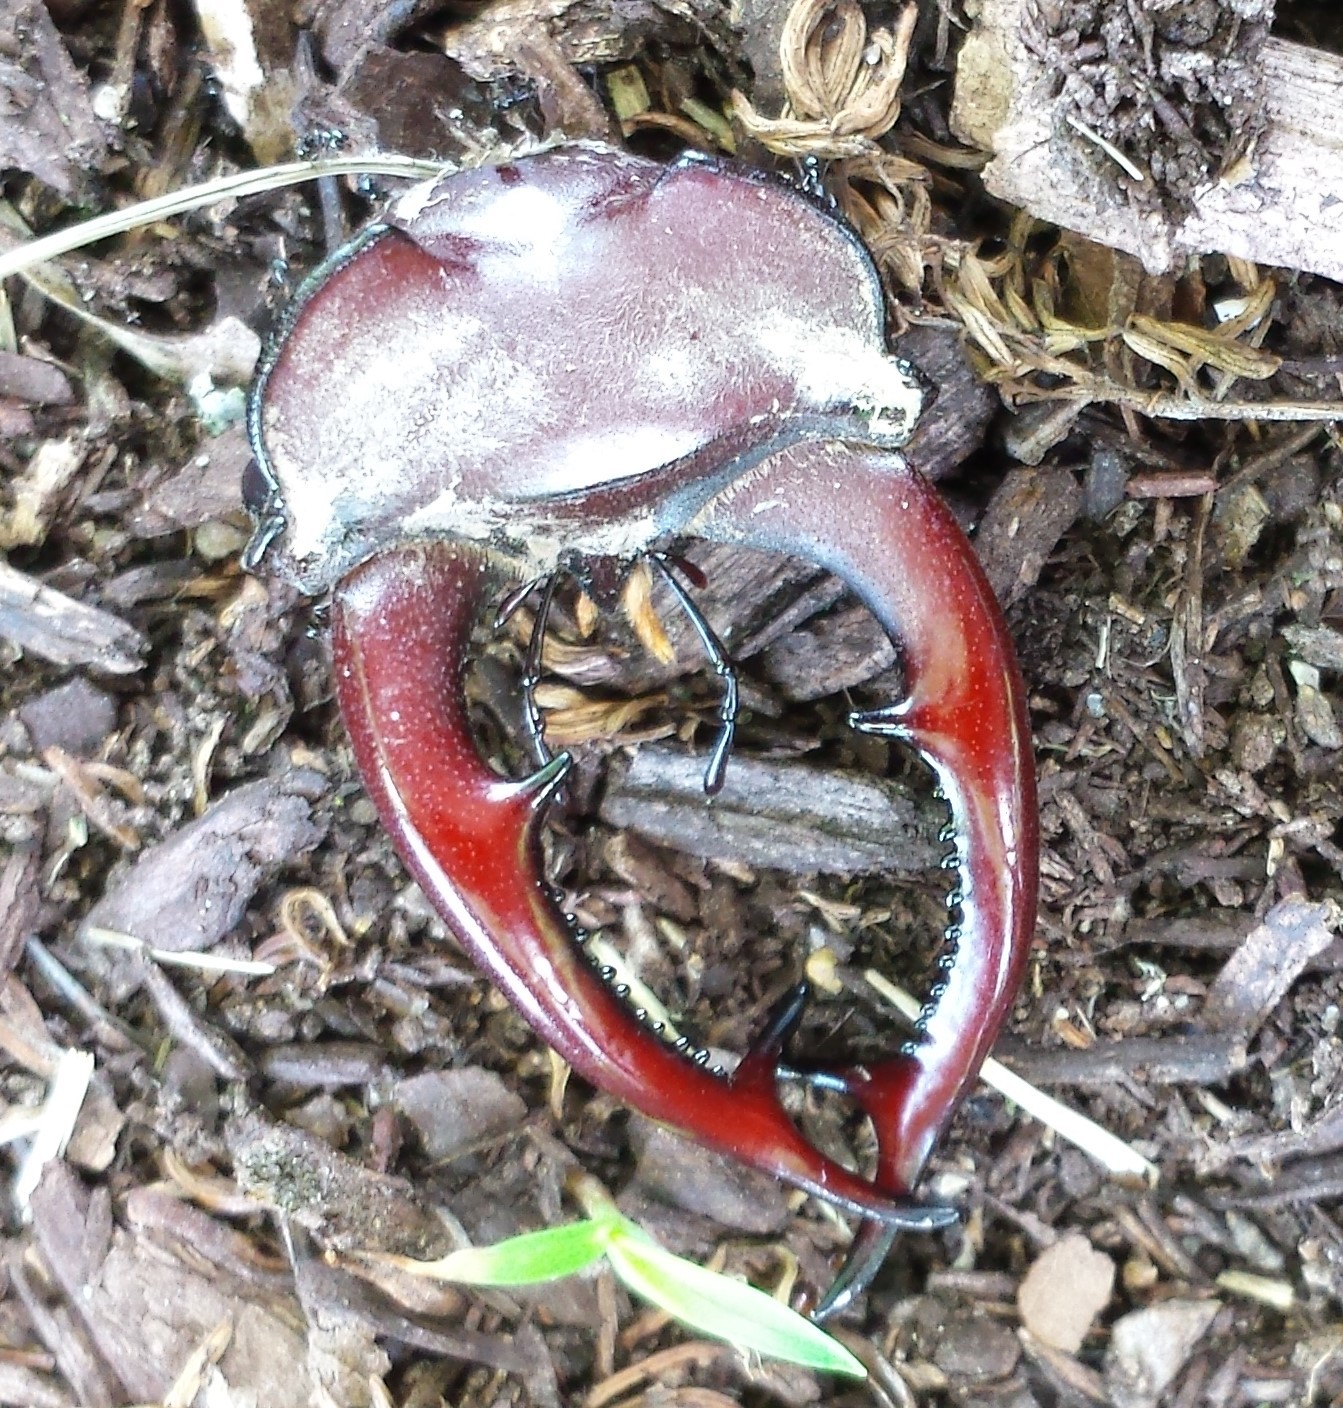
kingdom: Animalia
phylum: Arthropoda
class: Insecta
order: Coleoptera
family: Lucanidae
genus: Lucanus
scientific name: Lucanus elaphus
